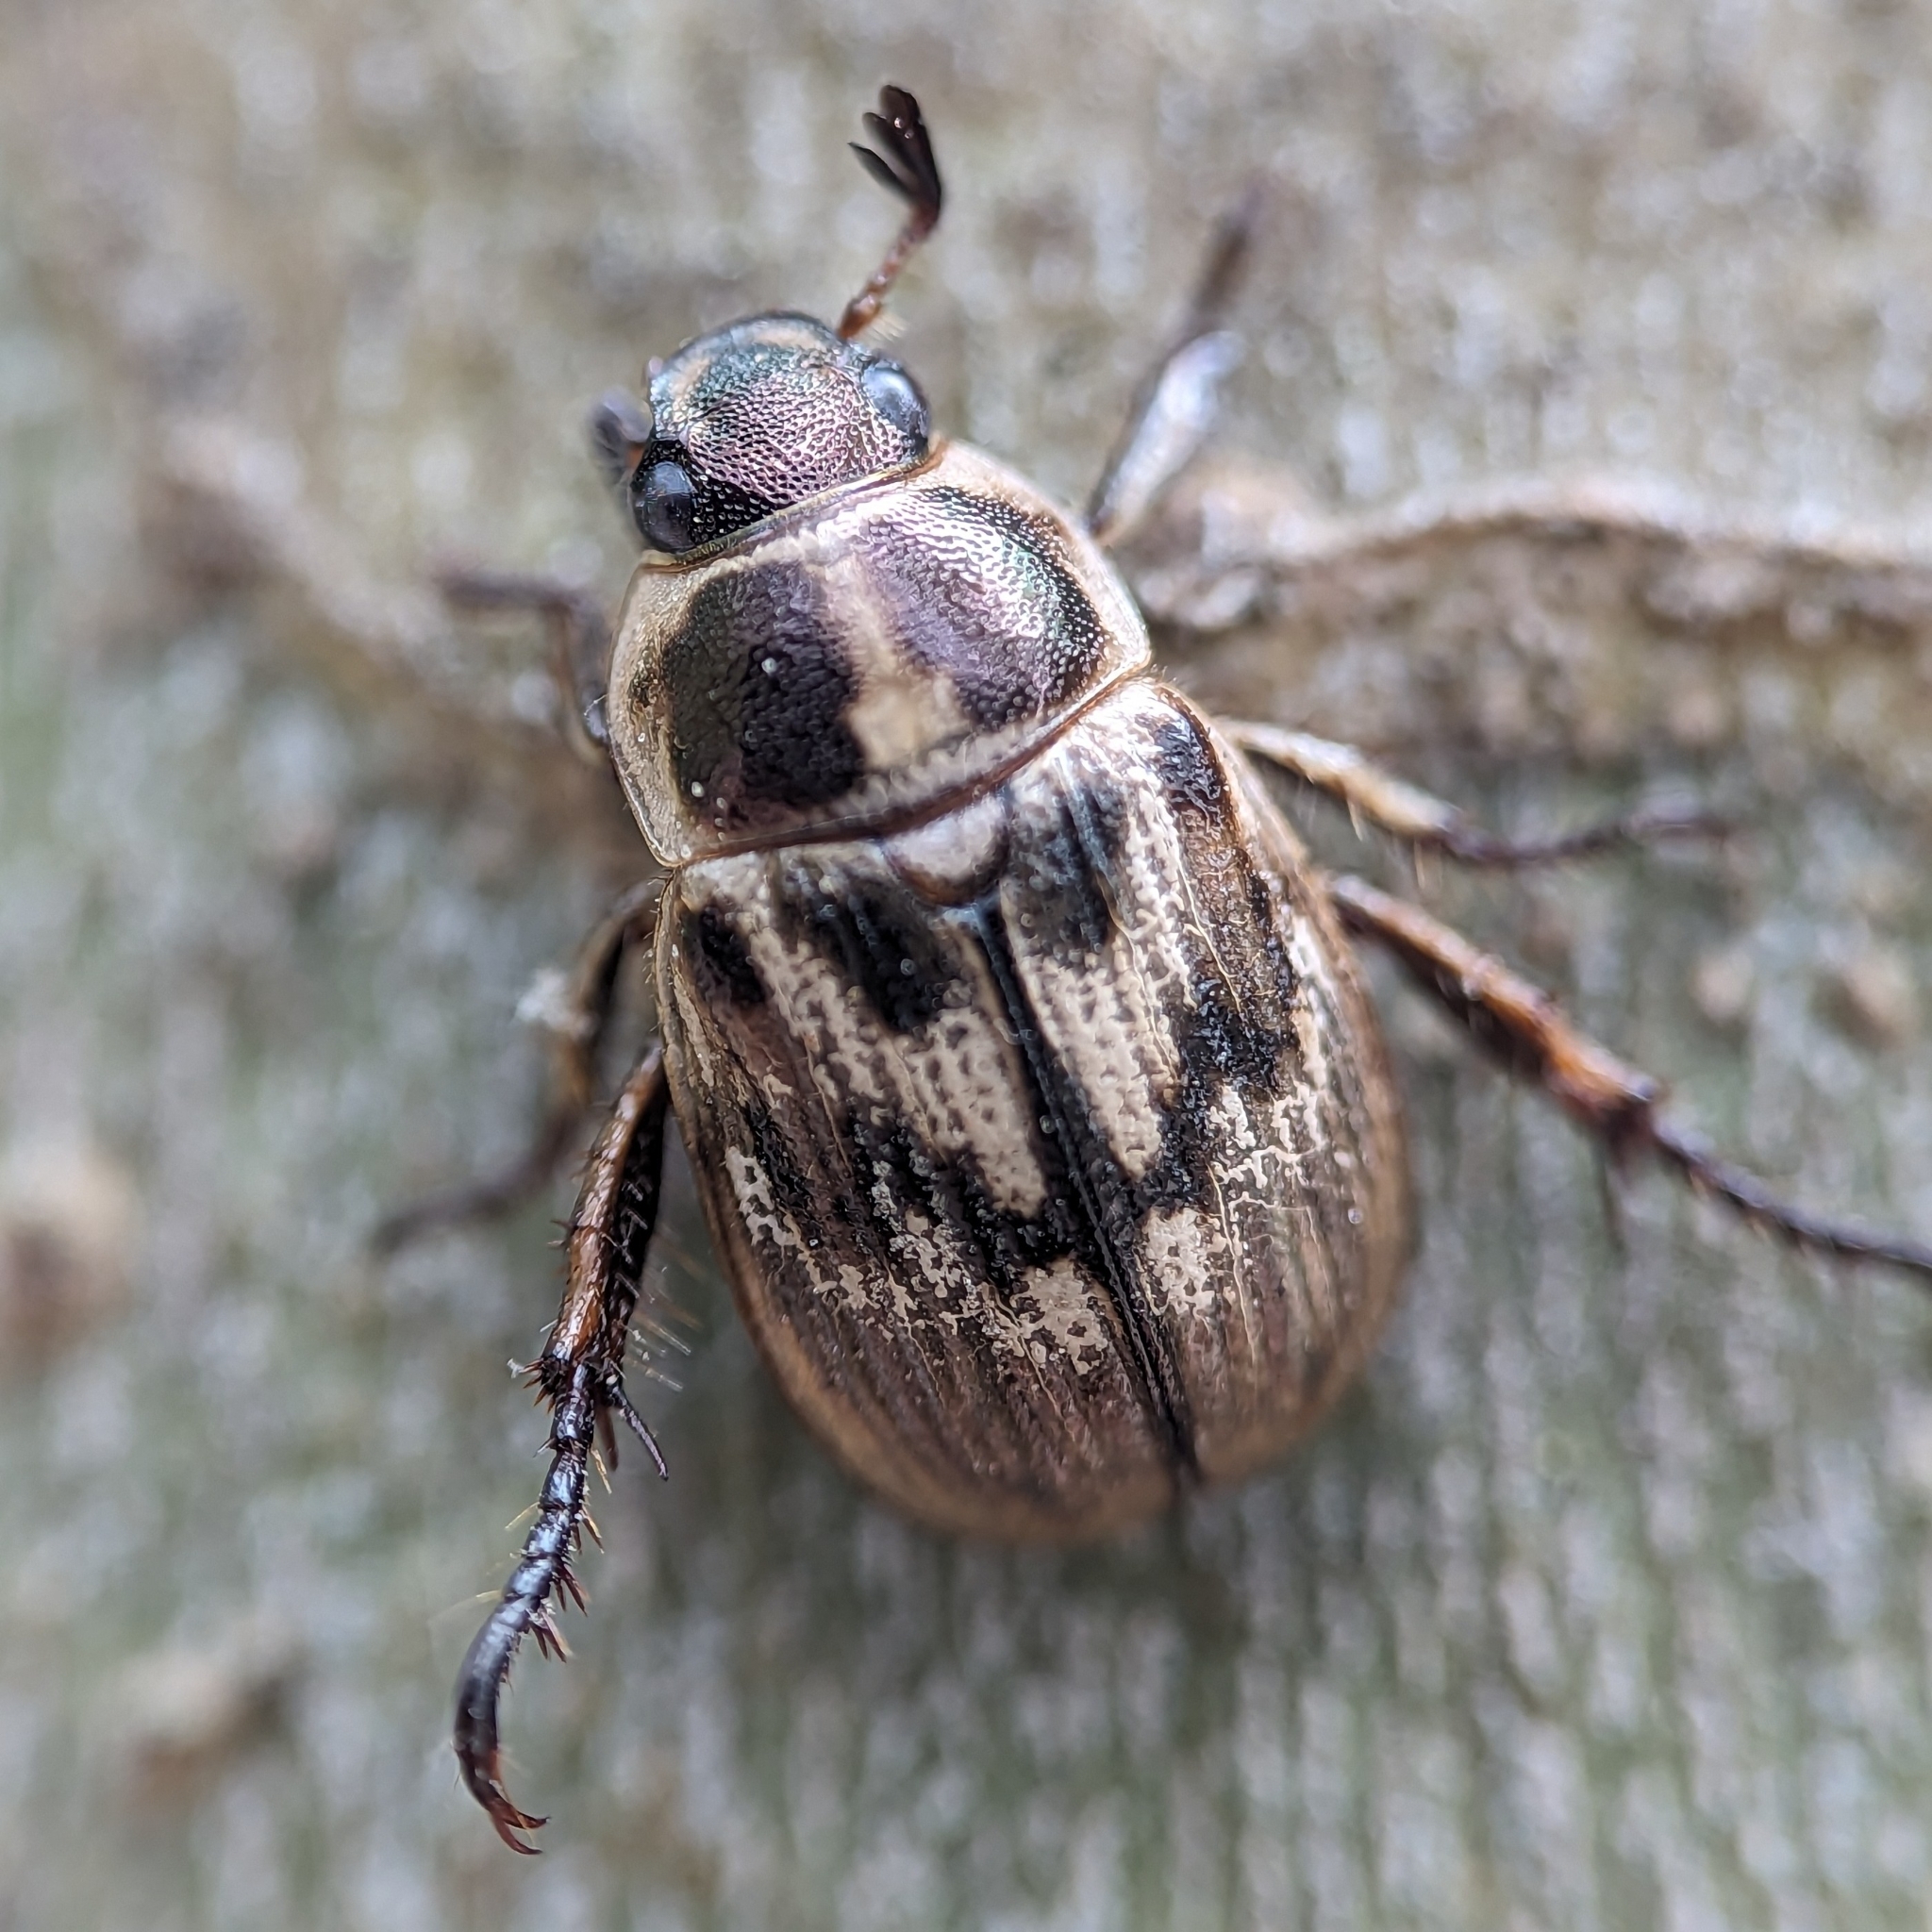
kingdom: Animalia
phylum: Arthropoda
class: Insecta
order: Coleoptera
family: Scarabaeidae
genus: Exomala
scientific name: Exomala orientalis
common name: Oriental beetle
